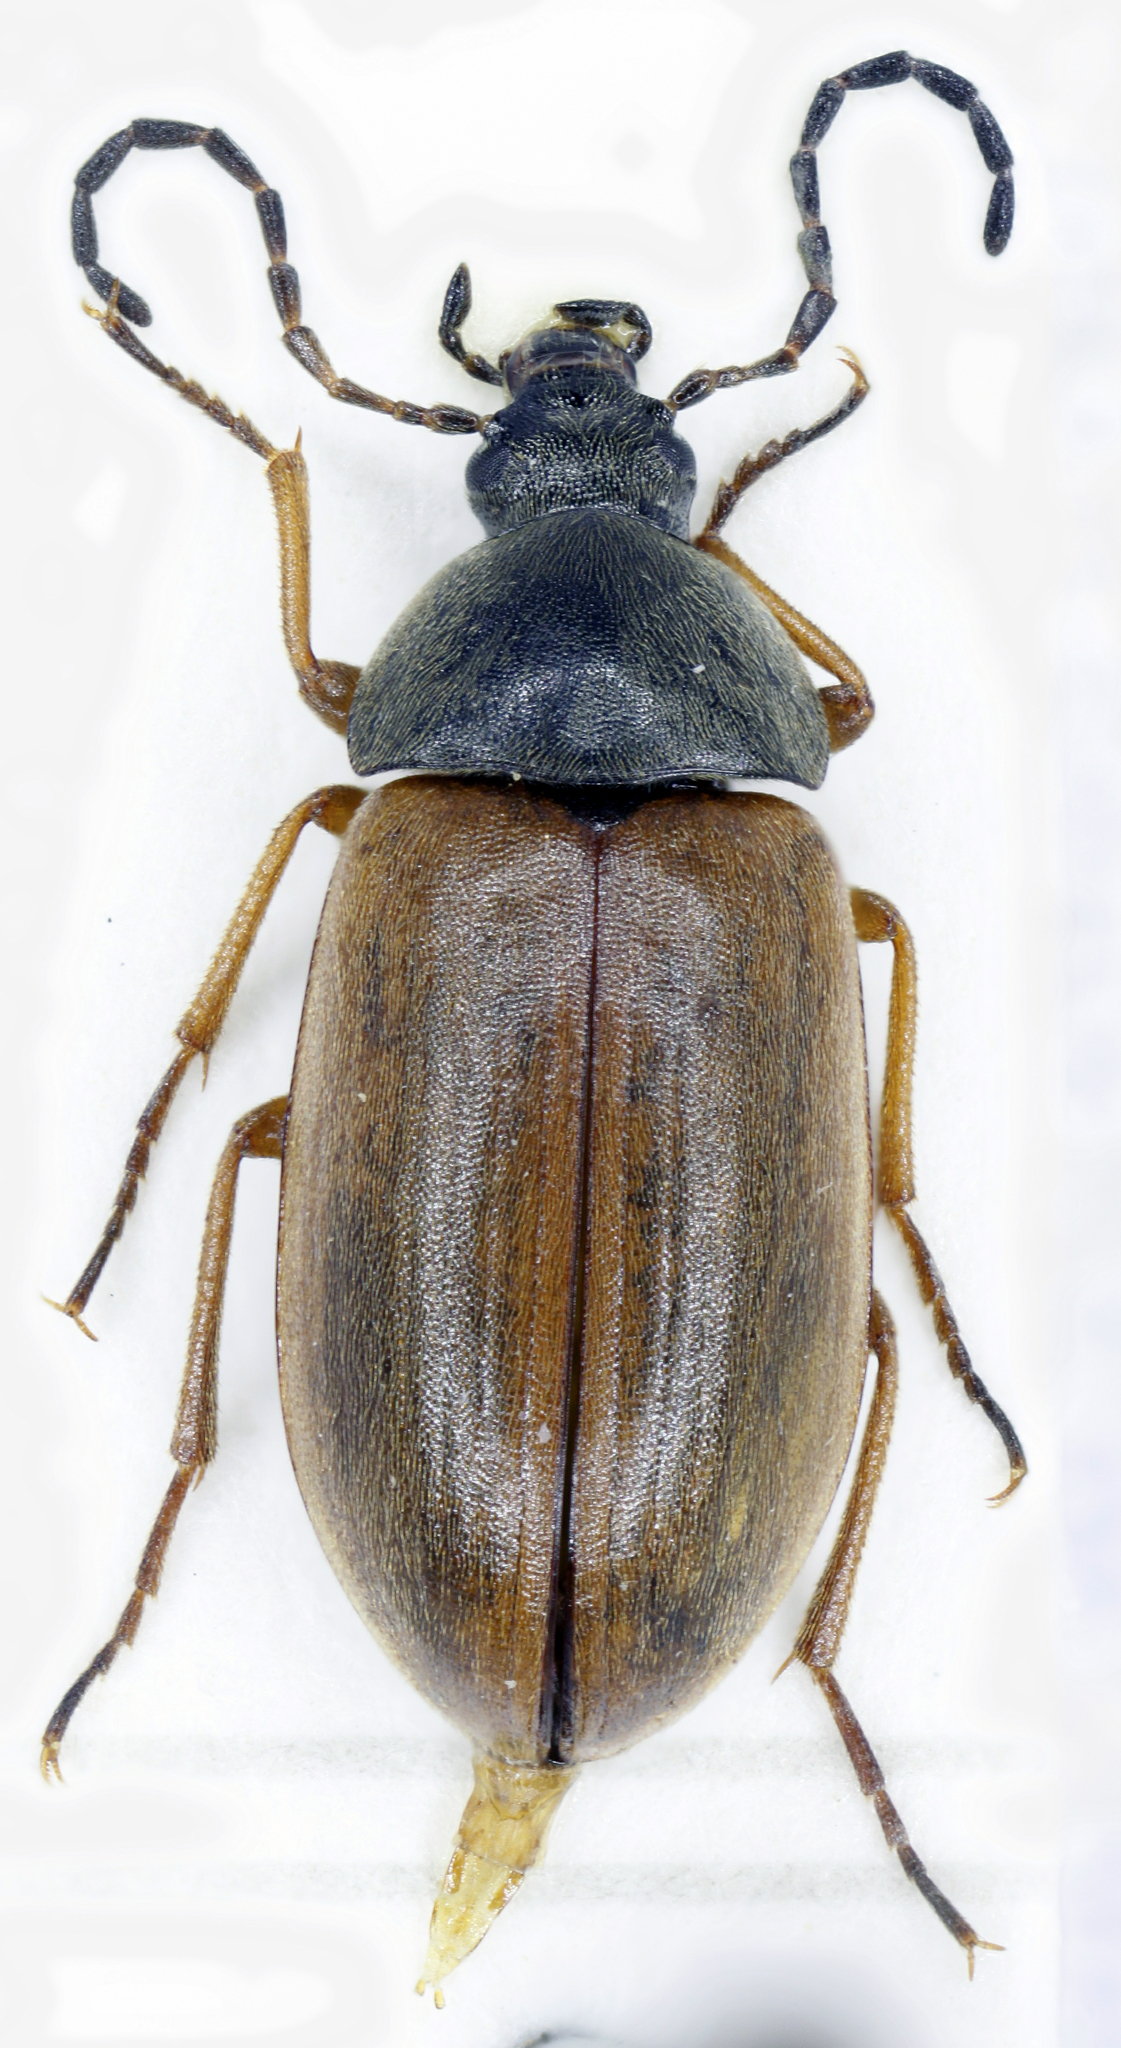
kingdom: Animalia
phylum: Arthropoda
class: Insecta
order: Coleoptera
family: Tenebrionidae
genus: Isomira
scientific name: Isomira murina
